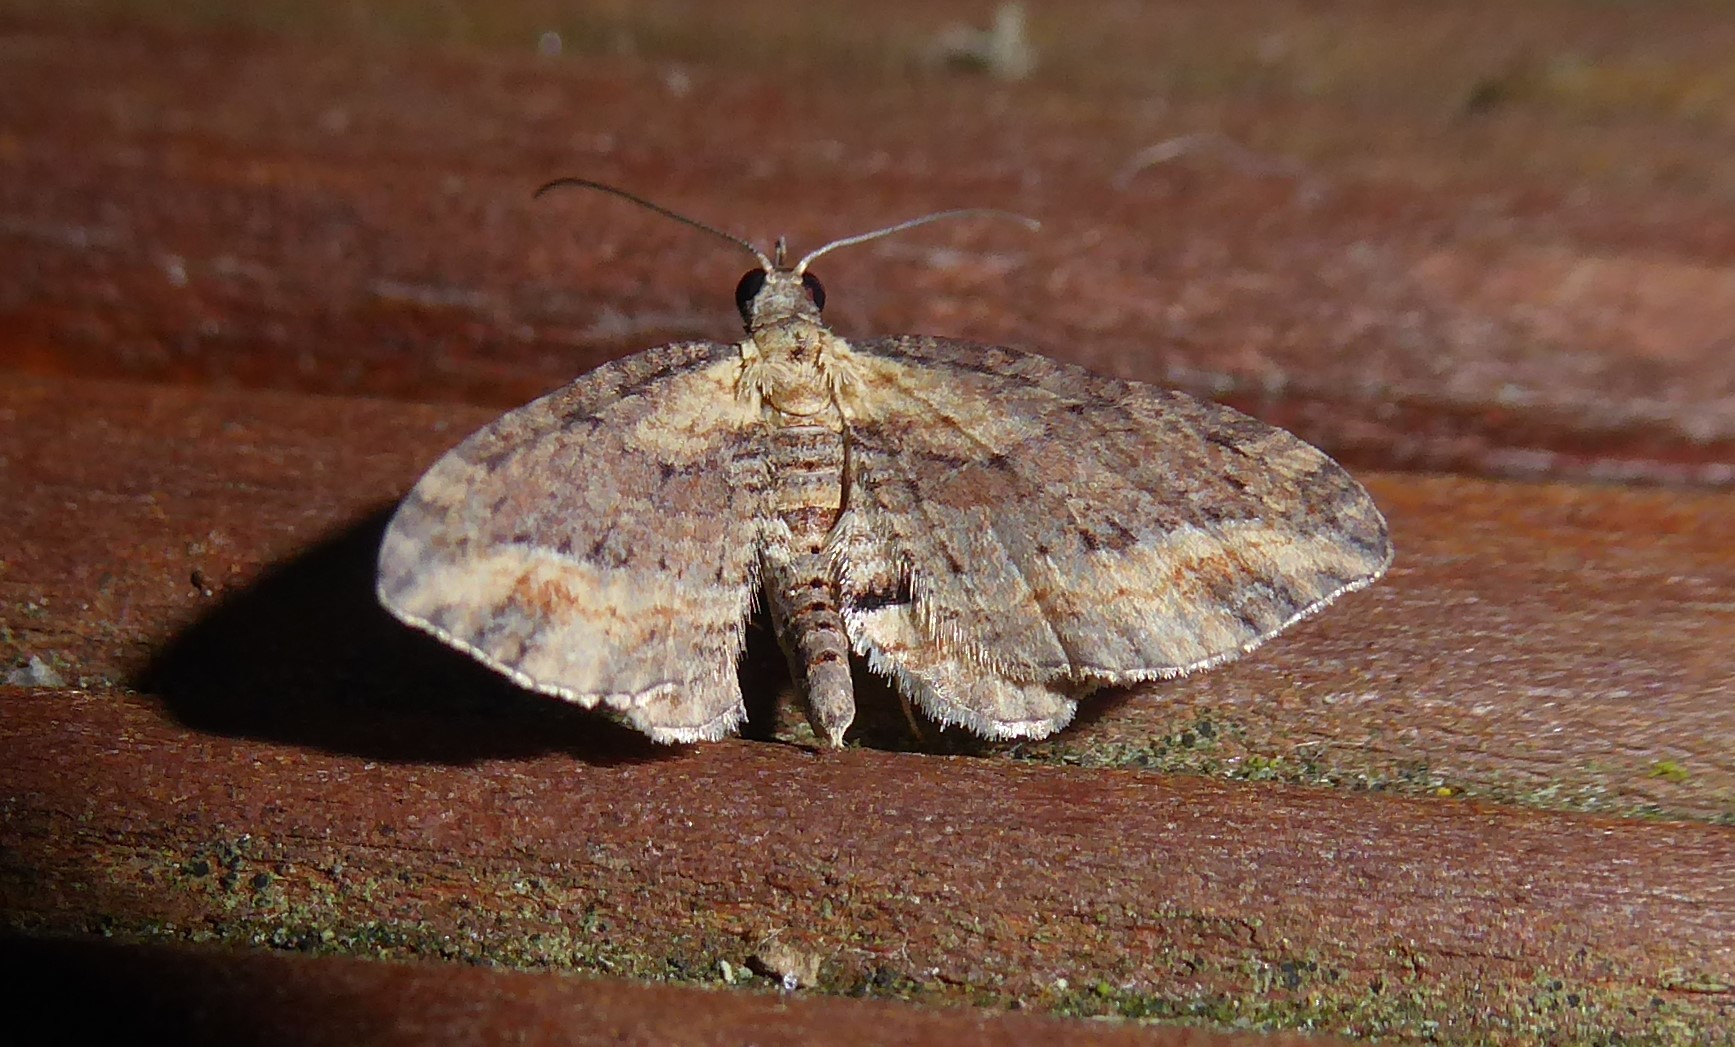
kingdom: Animalia
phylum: Arthropoda
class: Insecta
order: Lepidoptera
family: Geometridae
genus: Chloroclystis
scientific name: Chloroclystis filata
